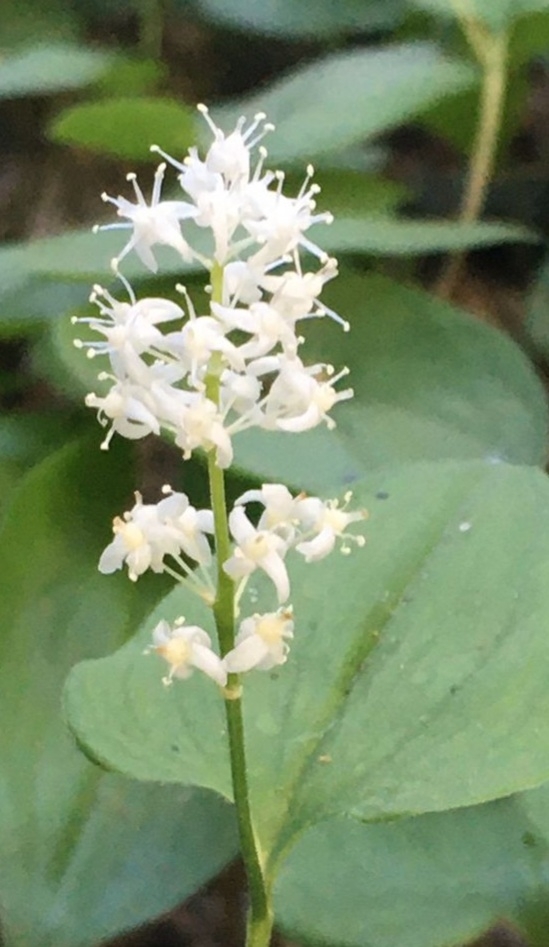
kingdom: Plantae
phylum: Tracheophyta
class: Liliopsida
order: Asparagales
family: Asparagaceae
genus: Maianthemum
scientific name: Maianthemum bifolium
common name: May lily
